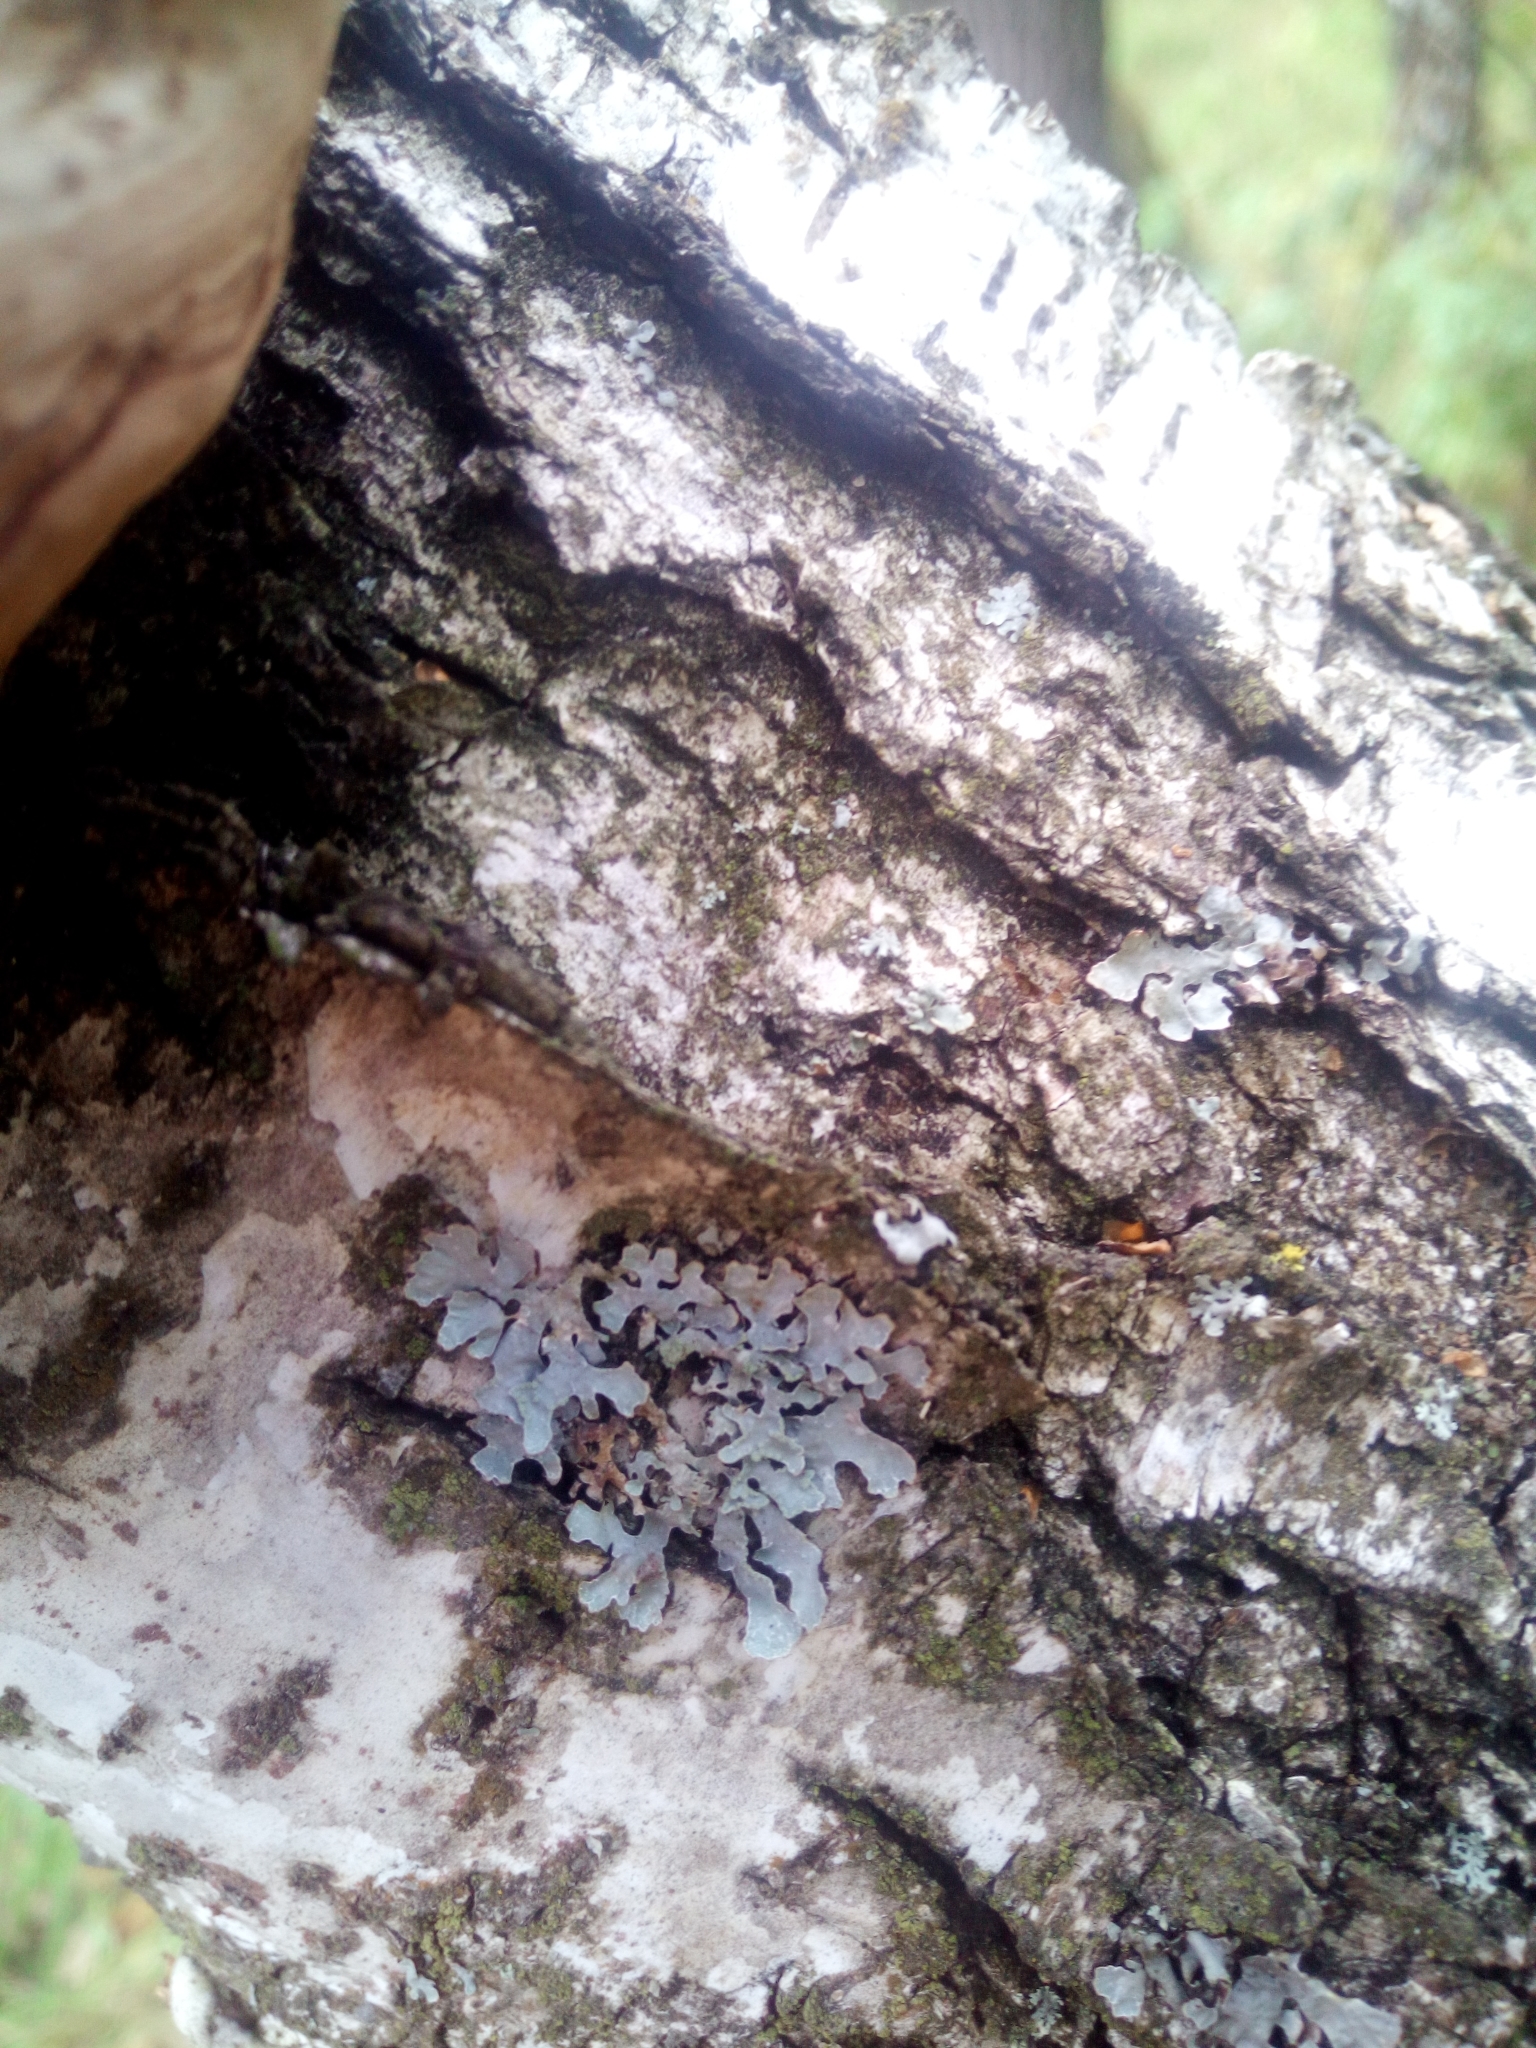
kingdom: Fungi
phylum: Ascomycota
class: Lecanoromycetes
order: Lecanorales
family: Parmeliaceae
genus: Parmelia
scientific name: Parmelia sulcata
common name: Netted shield lichen
